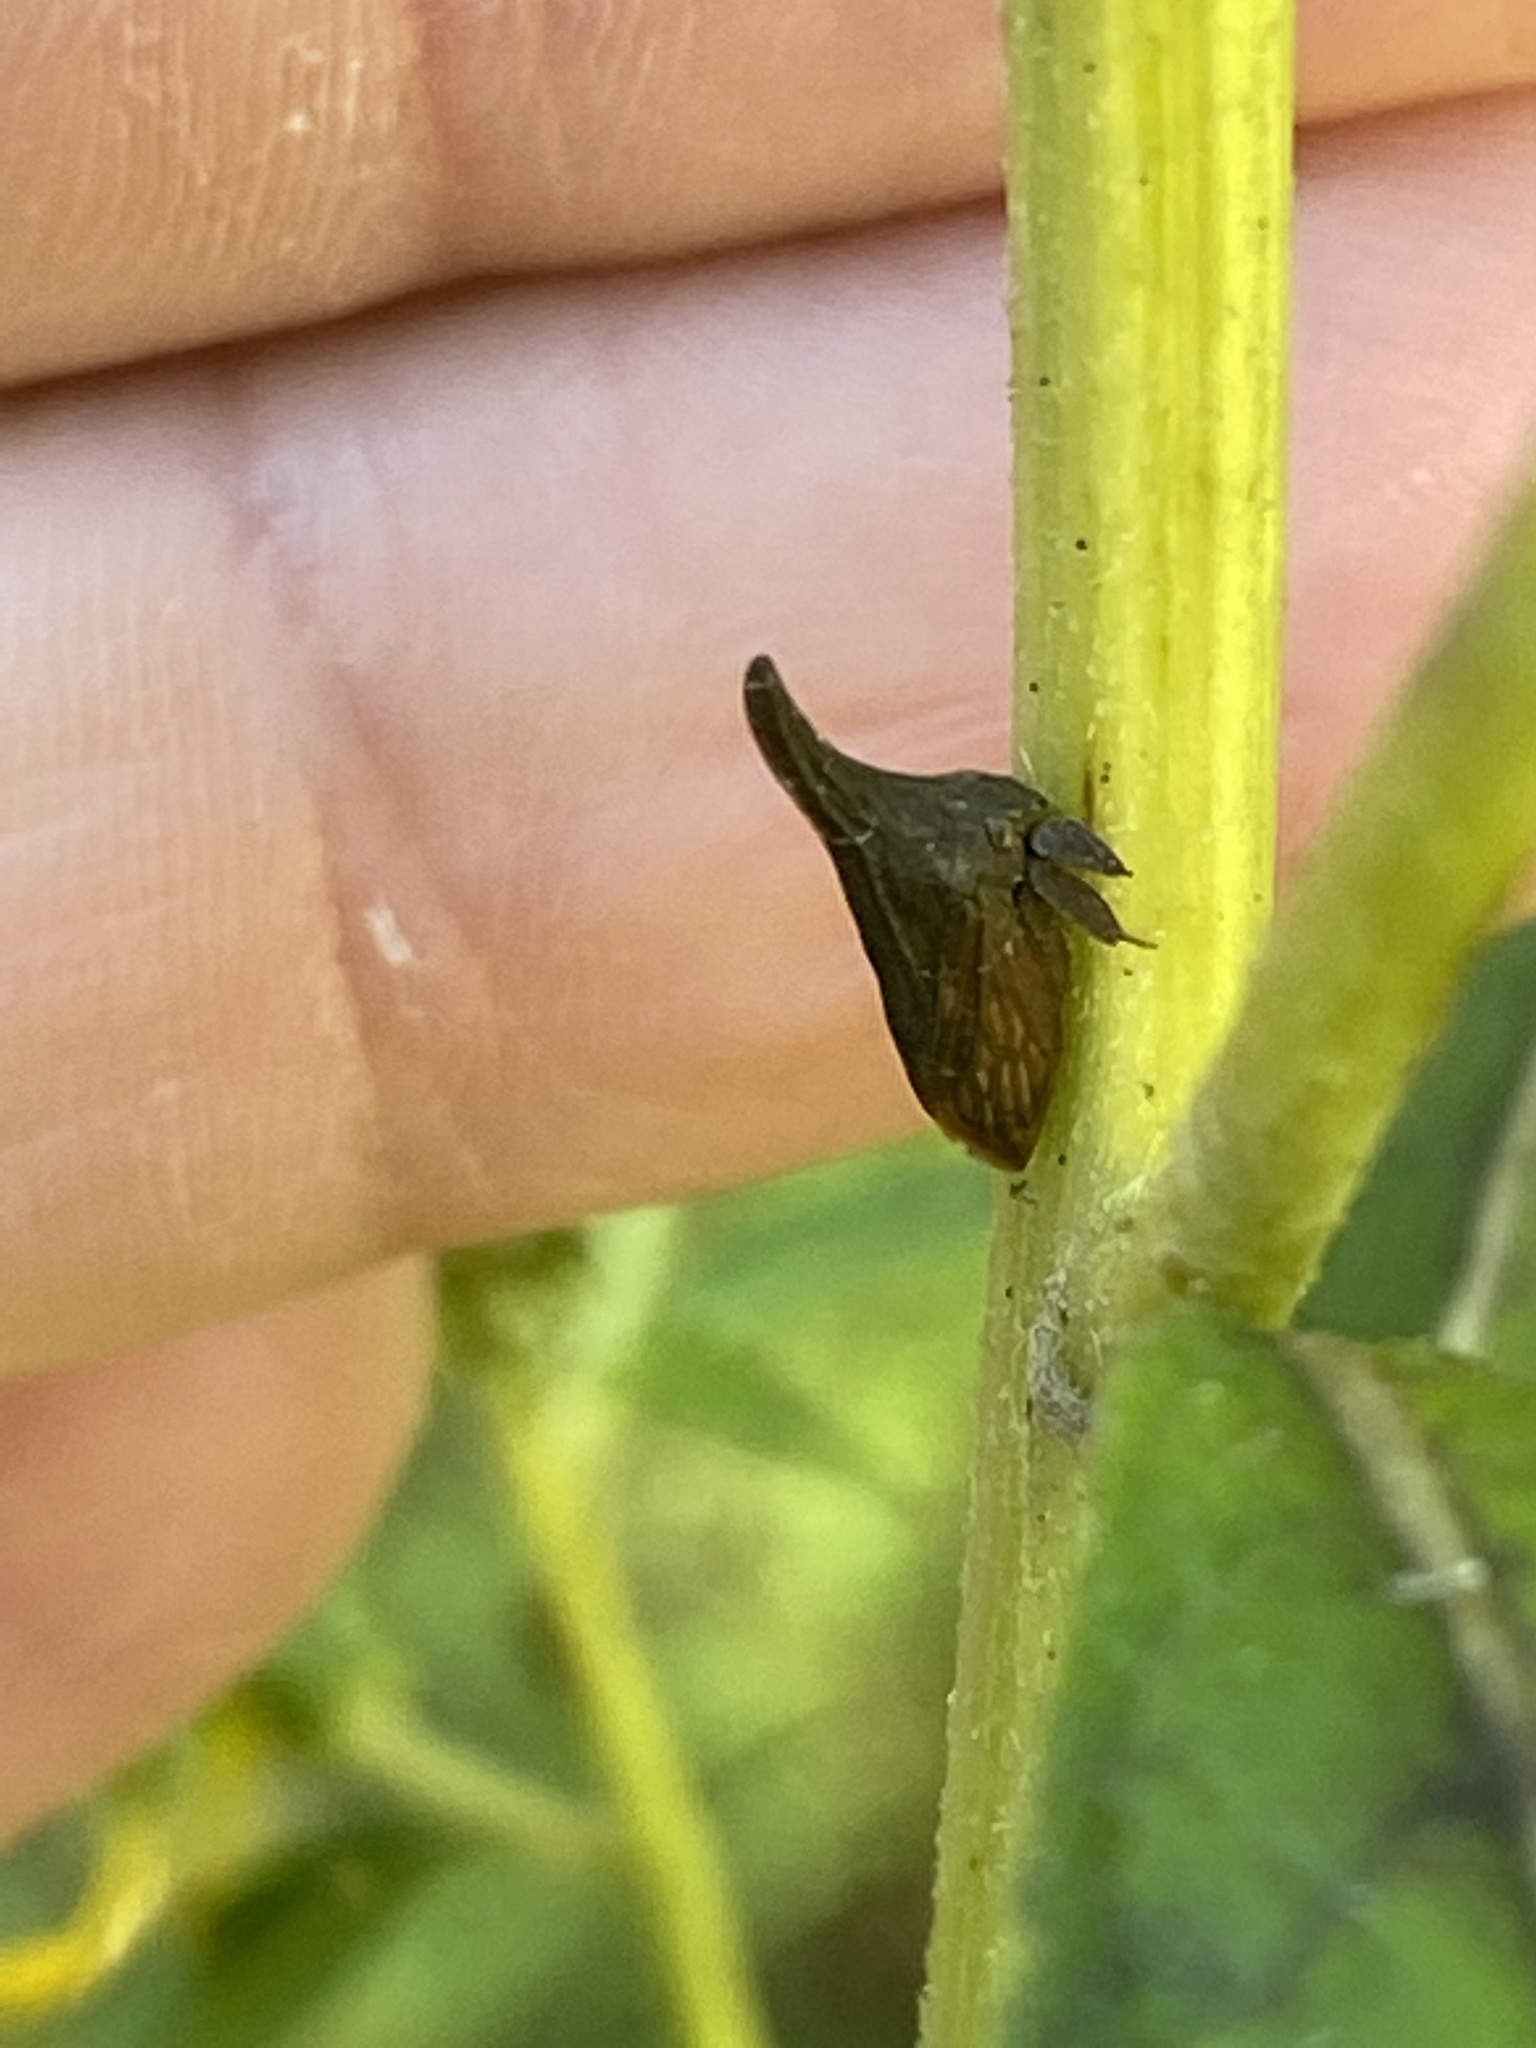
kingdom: Animalia
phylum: Arthropoda
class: Insecta
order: Hemiptera
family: Membracidae
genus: Enchenopa
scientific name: Enchenopa latipes
